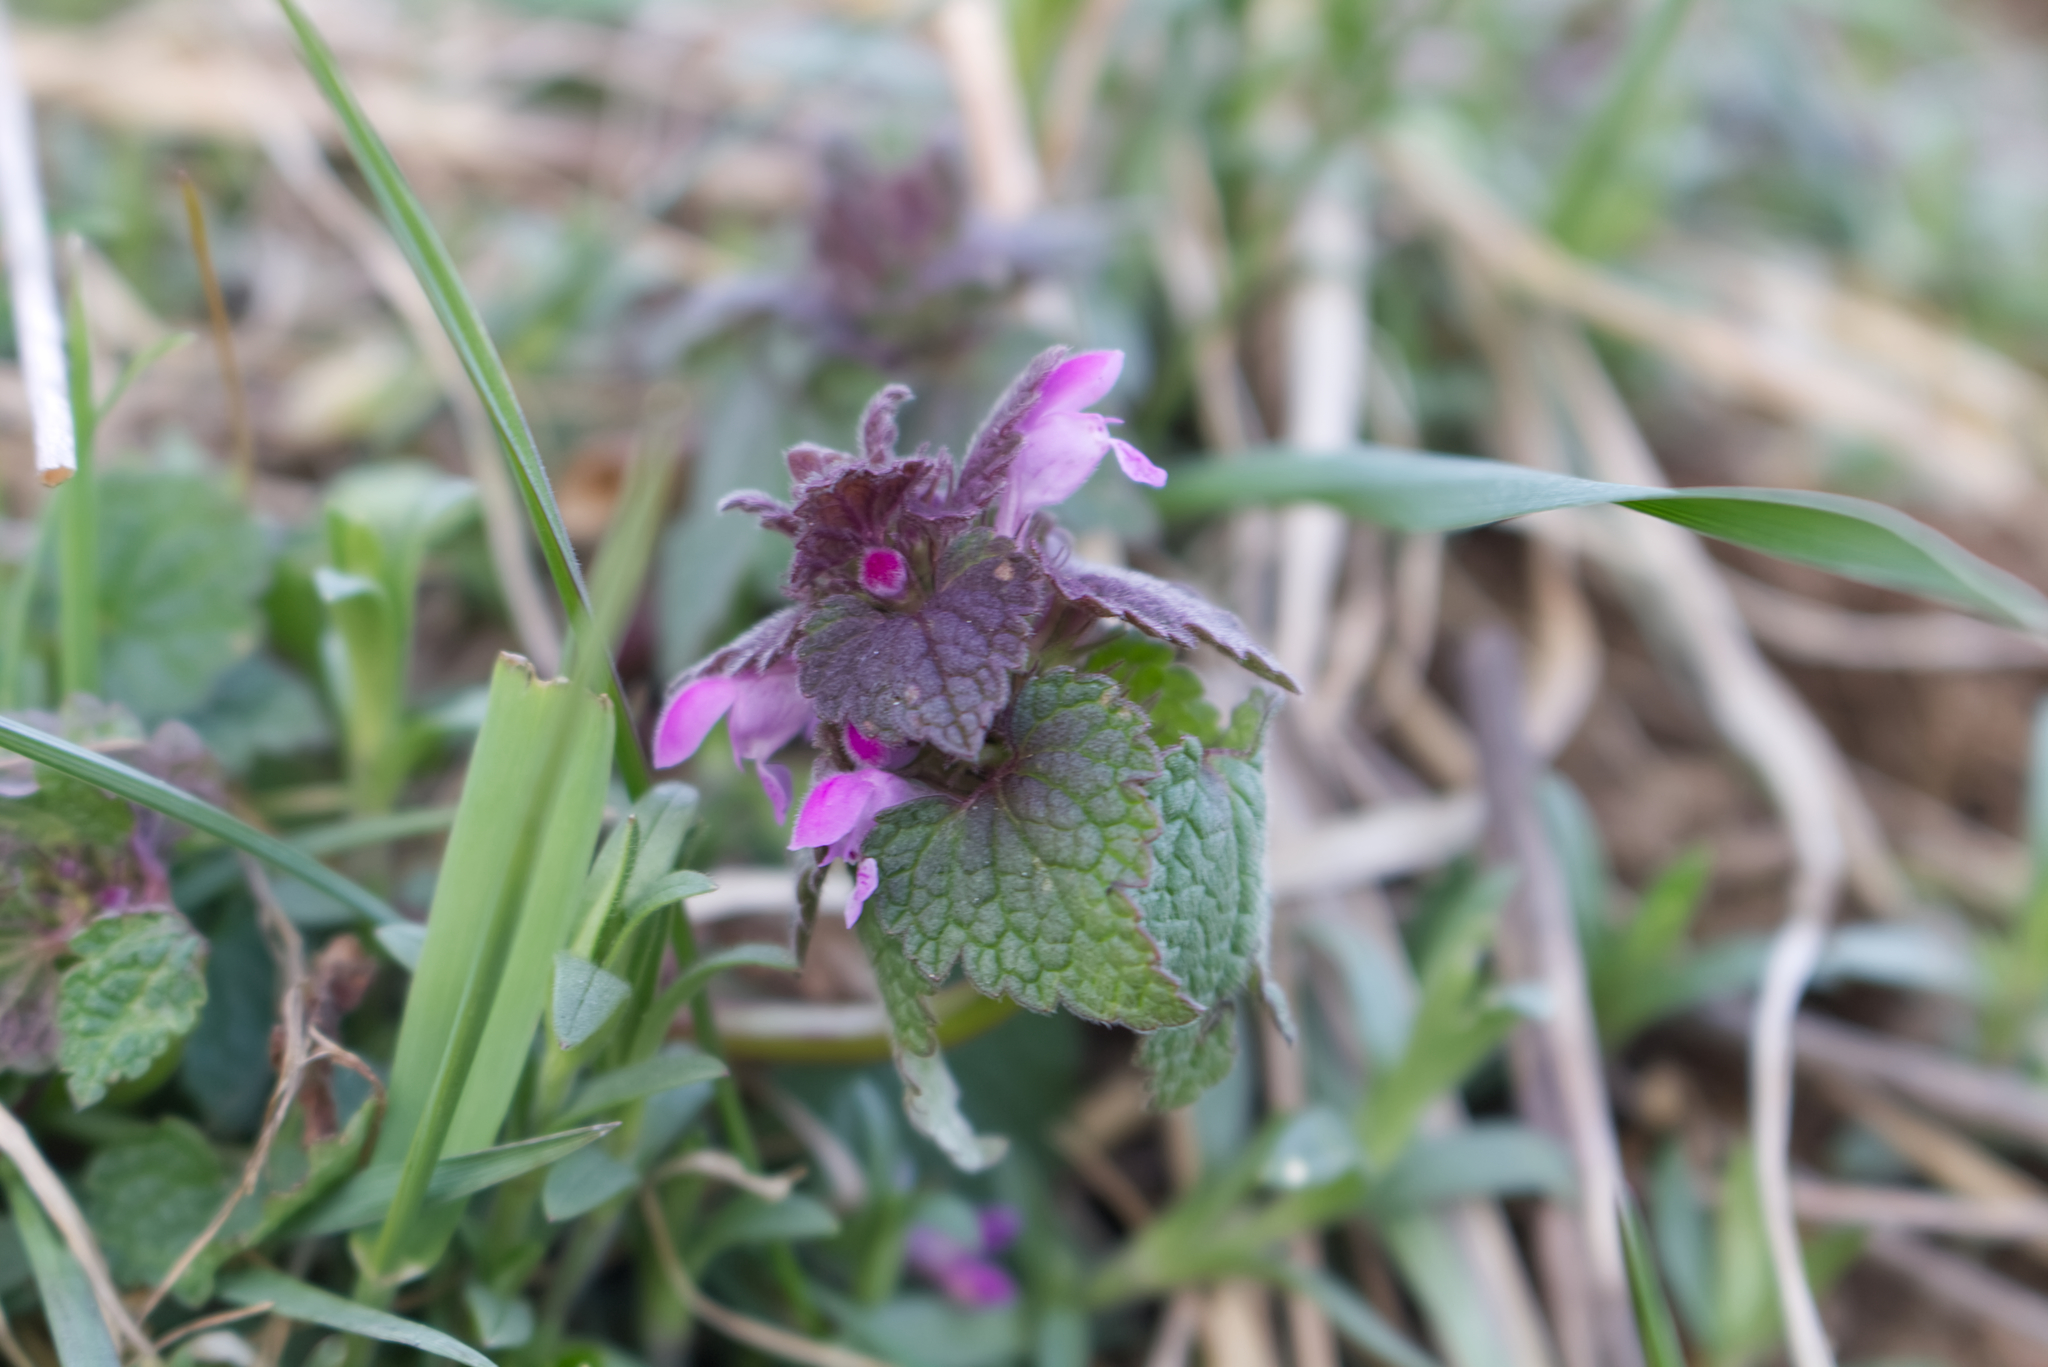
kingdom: Plantae
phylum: Tracheophyta
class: Magnoliopsida
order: Lamiales
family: Lamiaceae
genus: Lamium
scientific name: Lamium purpureum
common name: Red dead-nettle
